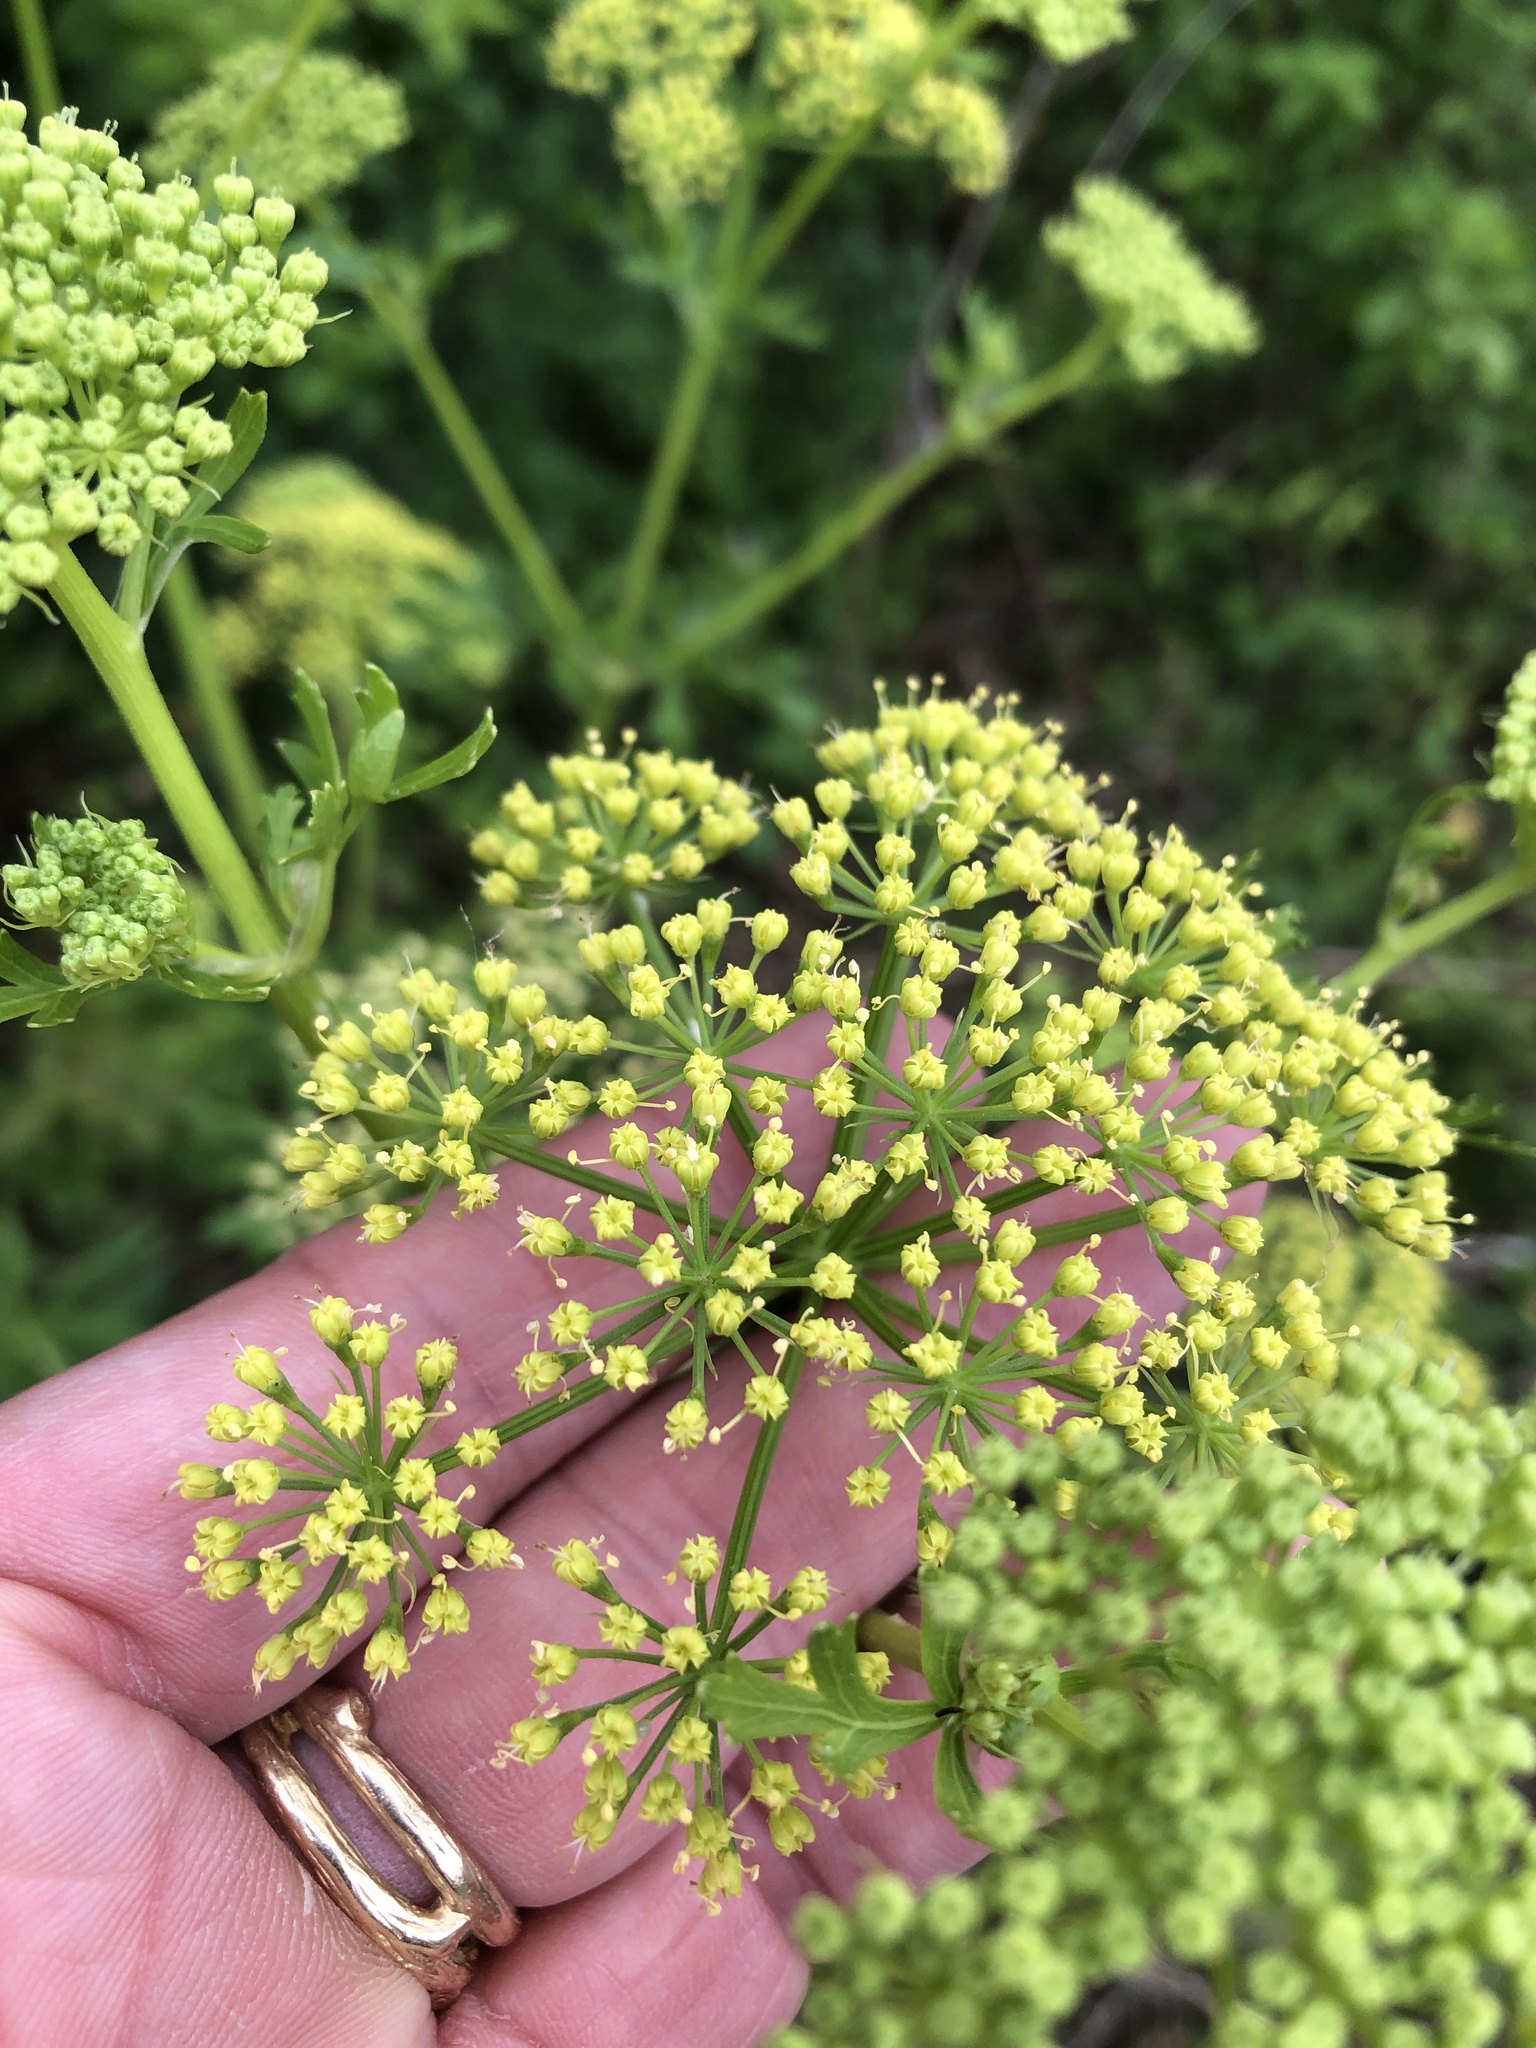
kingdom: Plantae
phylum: Tracheophyta
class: Magnoliopsida
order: Apiales
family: Apiaceae
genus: Polytaenia
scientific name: Polytaenia texana
